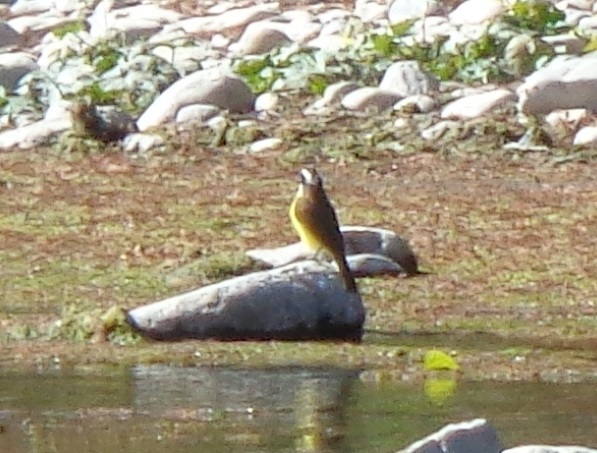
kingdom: Animalia
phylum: Chordata
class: Aves
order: Passeriformes
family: Tyrannidae
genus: Pitangus
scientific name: Pitangus sulphuratus
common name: Great kiskadee
